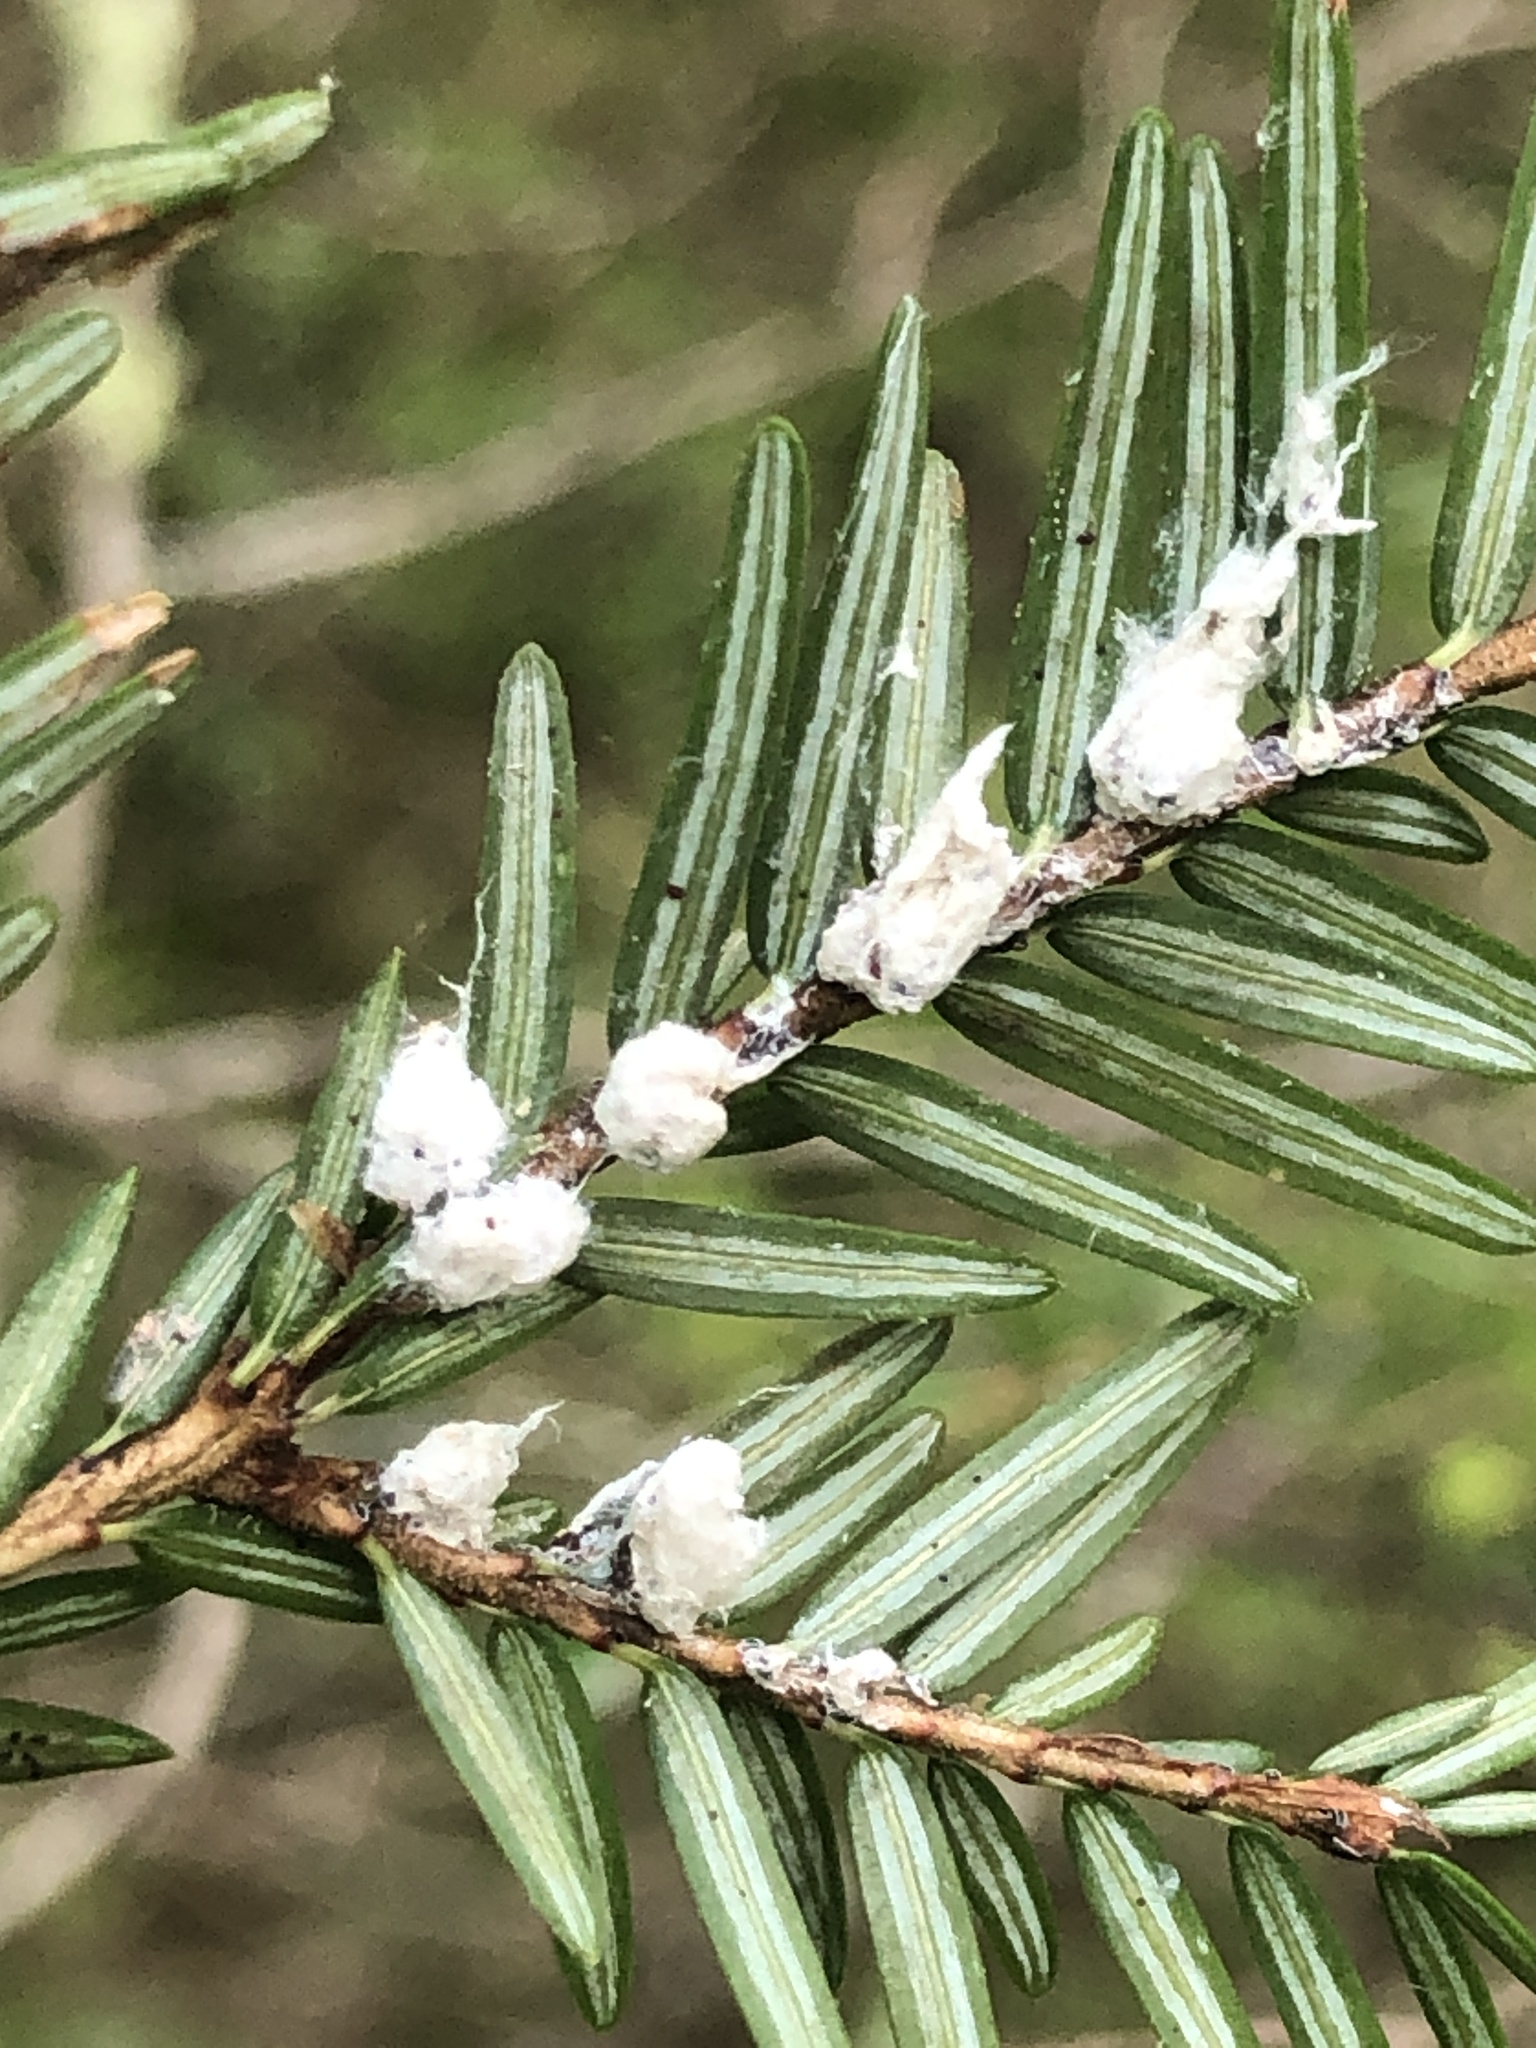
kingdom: Animalia
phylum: Arthropoda
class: Insecta
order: Hemiptera
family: Adelgidae
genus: Adelges
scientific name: Adelges tsugae
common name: Hemlock woolly adelgid
